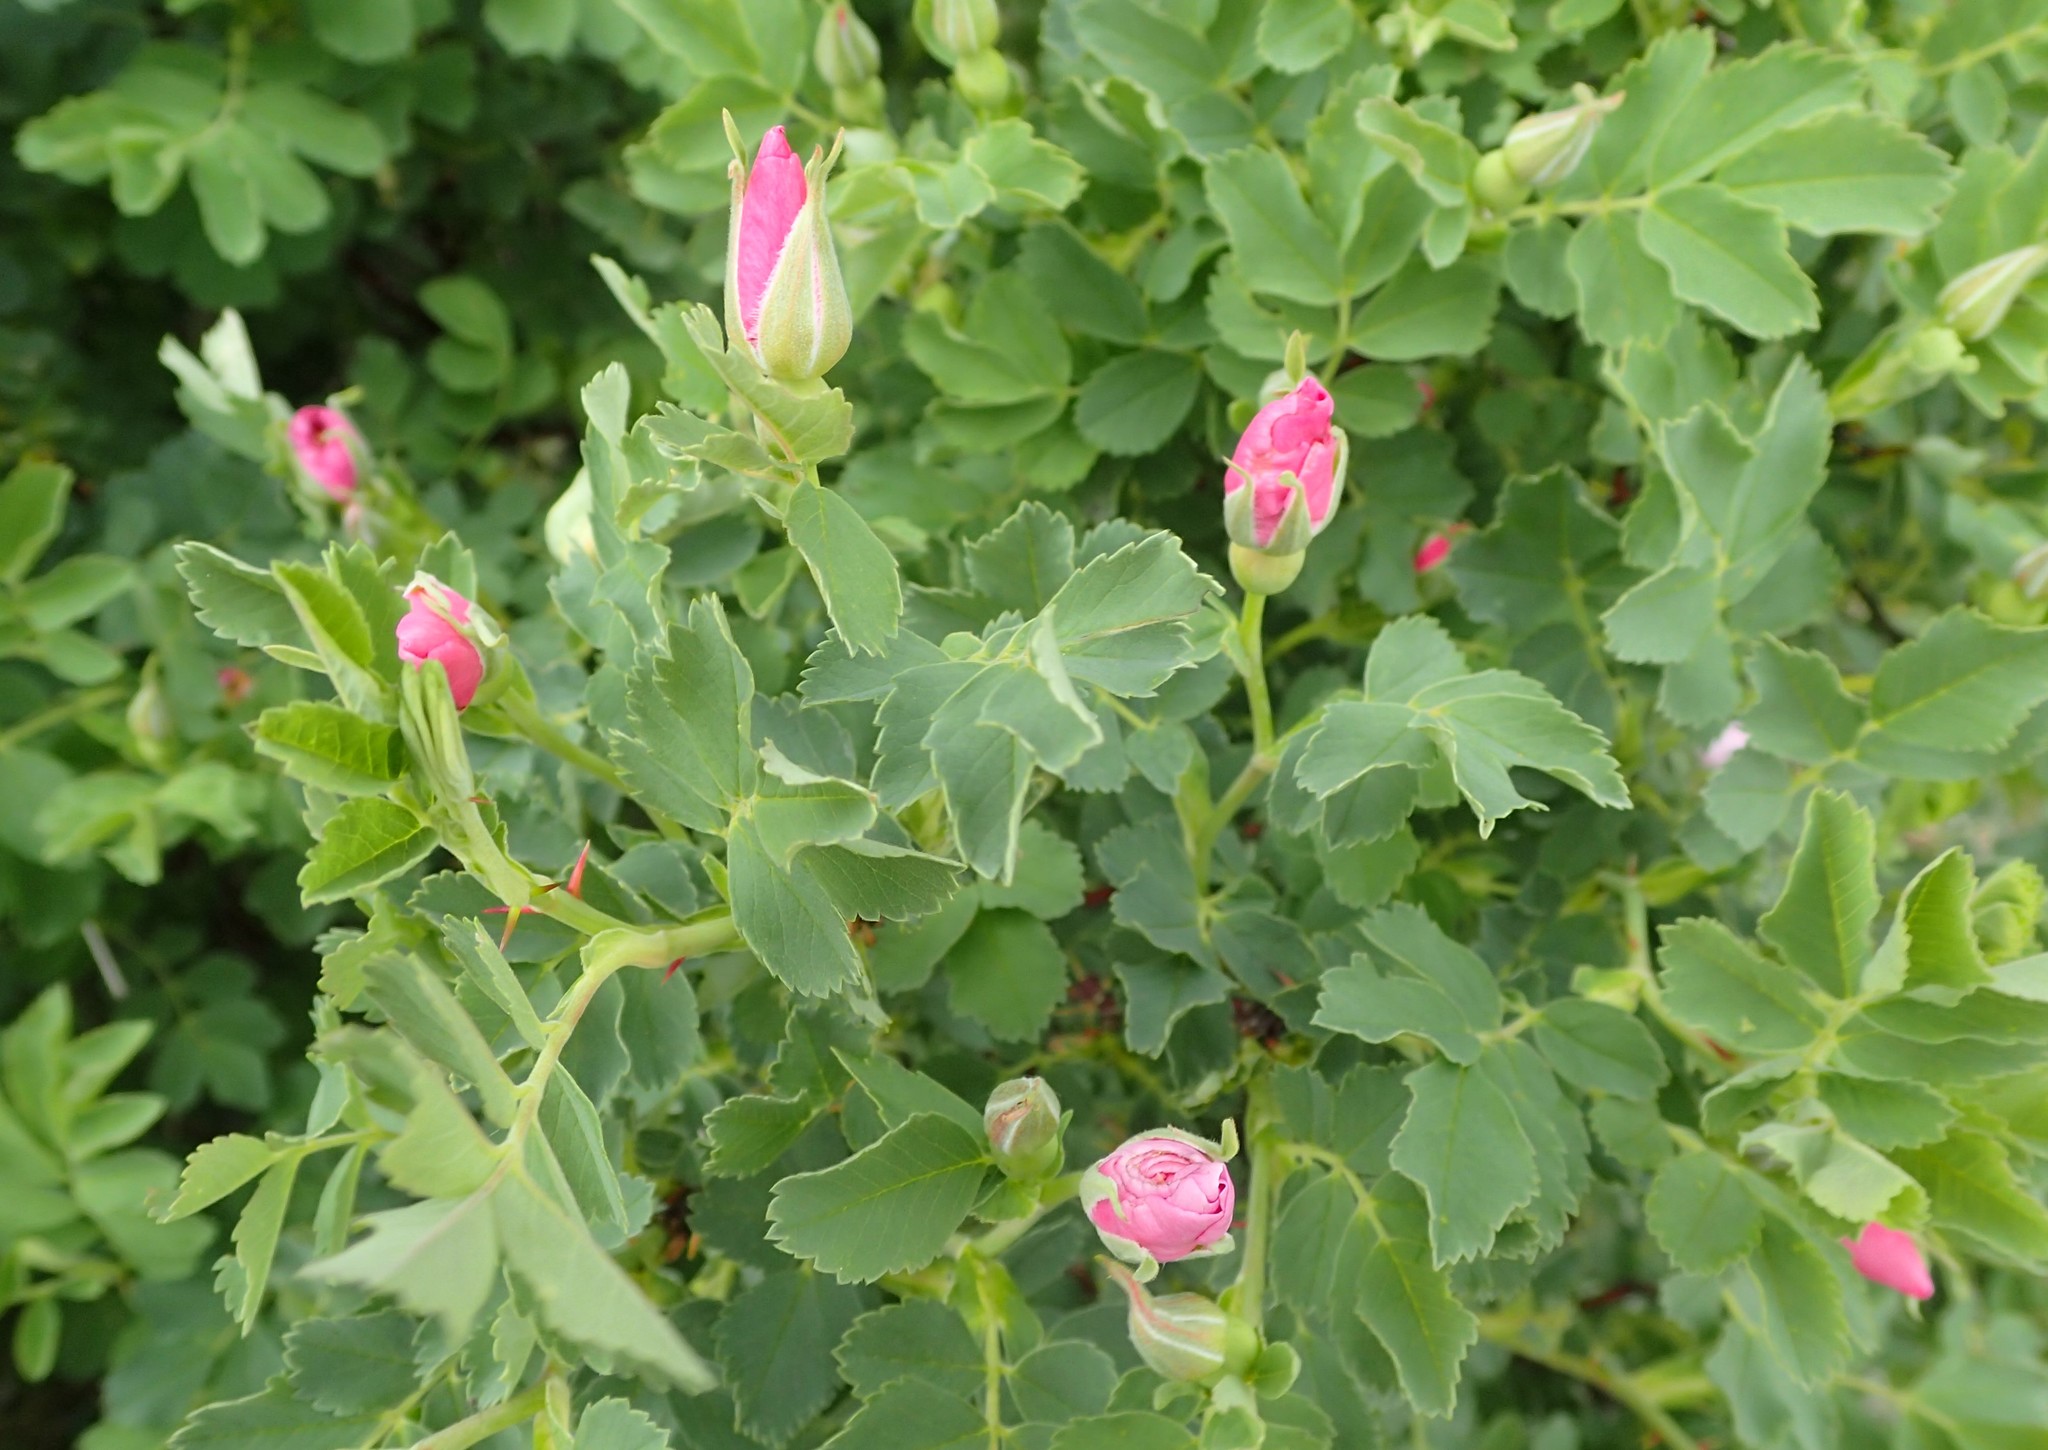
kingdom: Plantae
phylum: Tracheophyta
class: Magnoliopsida
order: Rosales
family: Rosaceae
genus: Rosa
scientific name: Rosa arkansana
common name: Prairie rose
